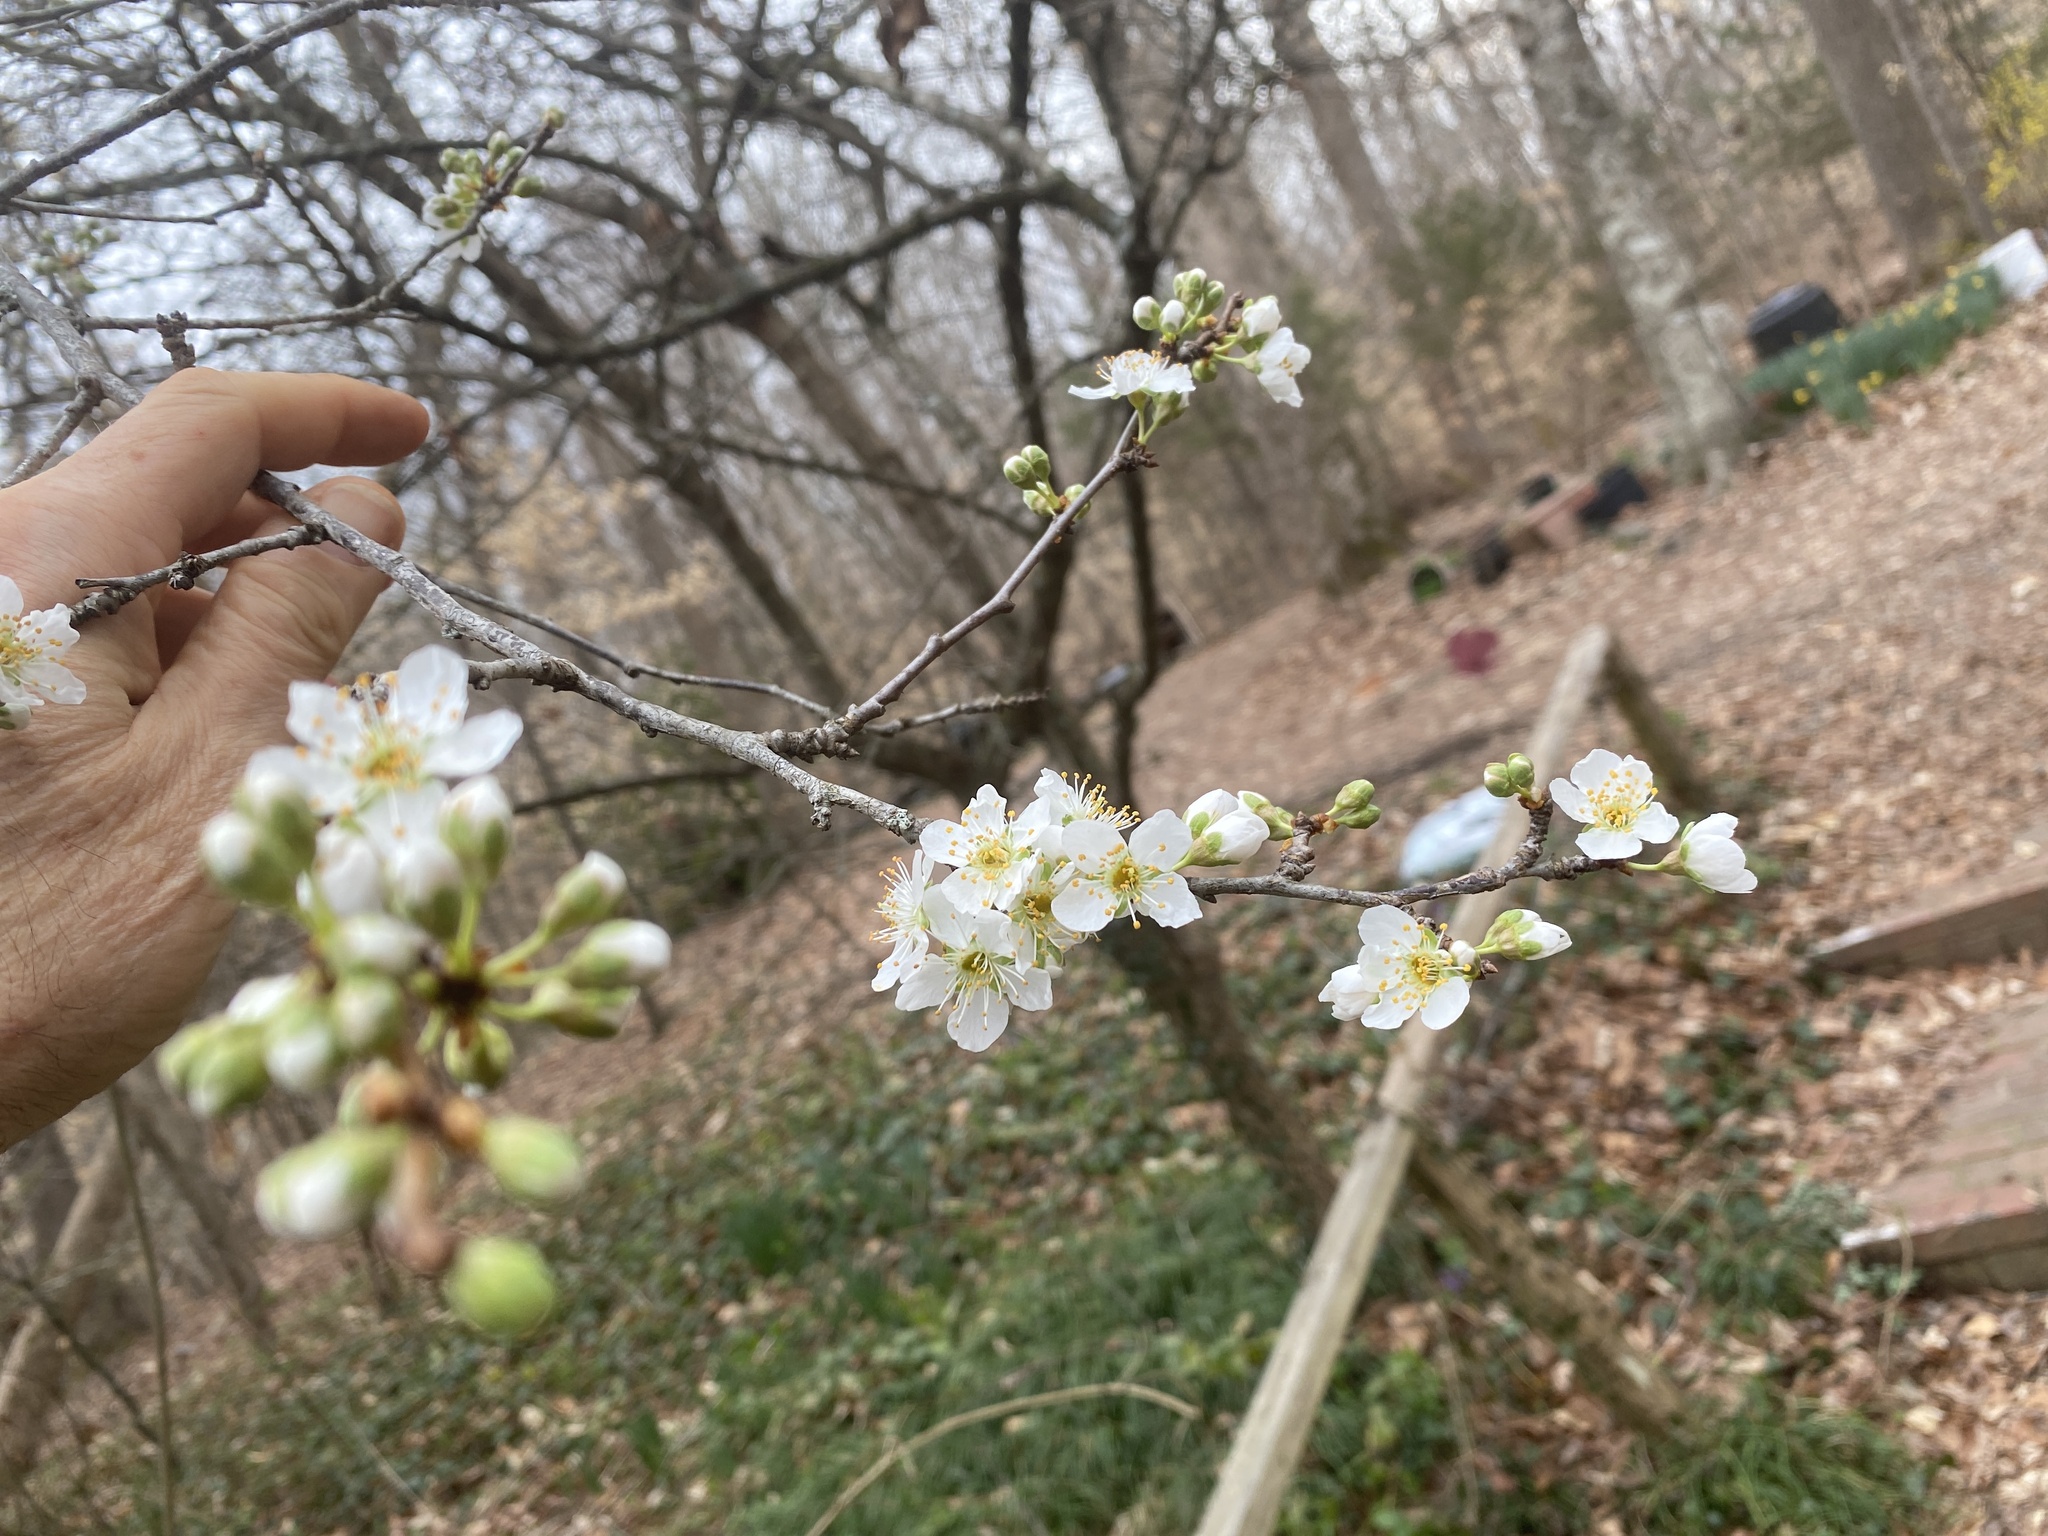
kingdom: Plantae
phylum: Tracheophyta
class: Magnoliopsida
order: Rosales
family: Rosaceae
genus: Prunus
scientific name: Prunus angustifolia
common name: Cherokee plum
